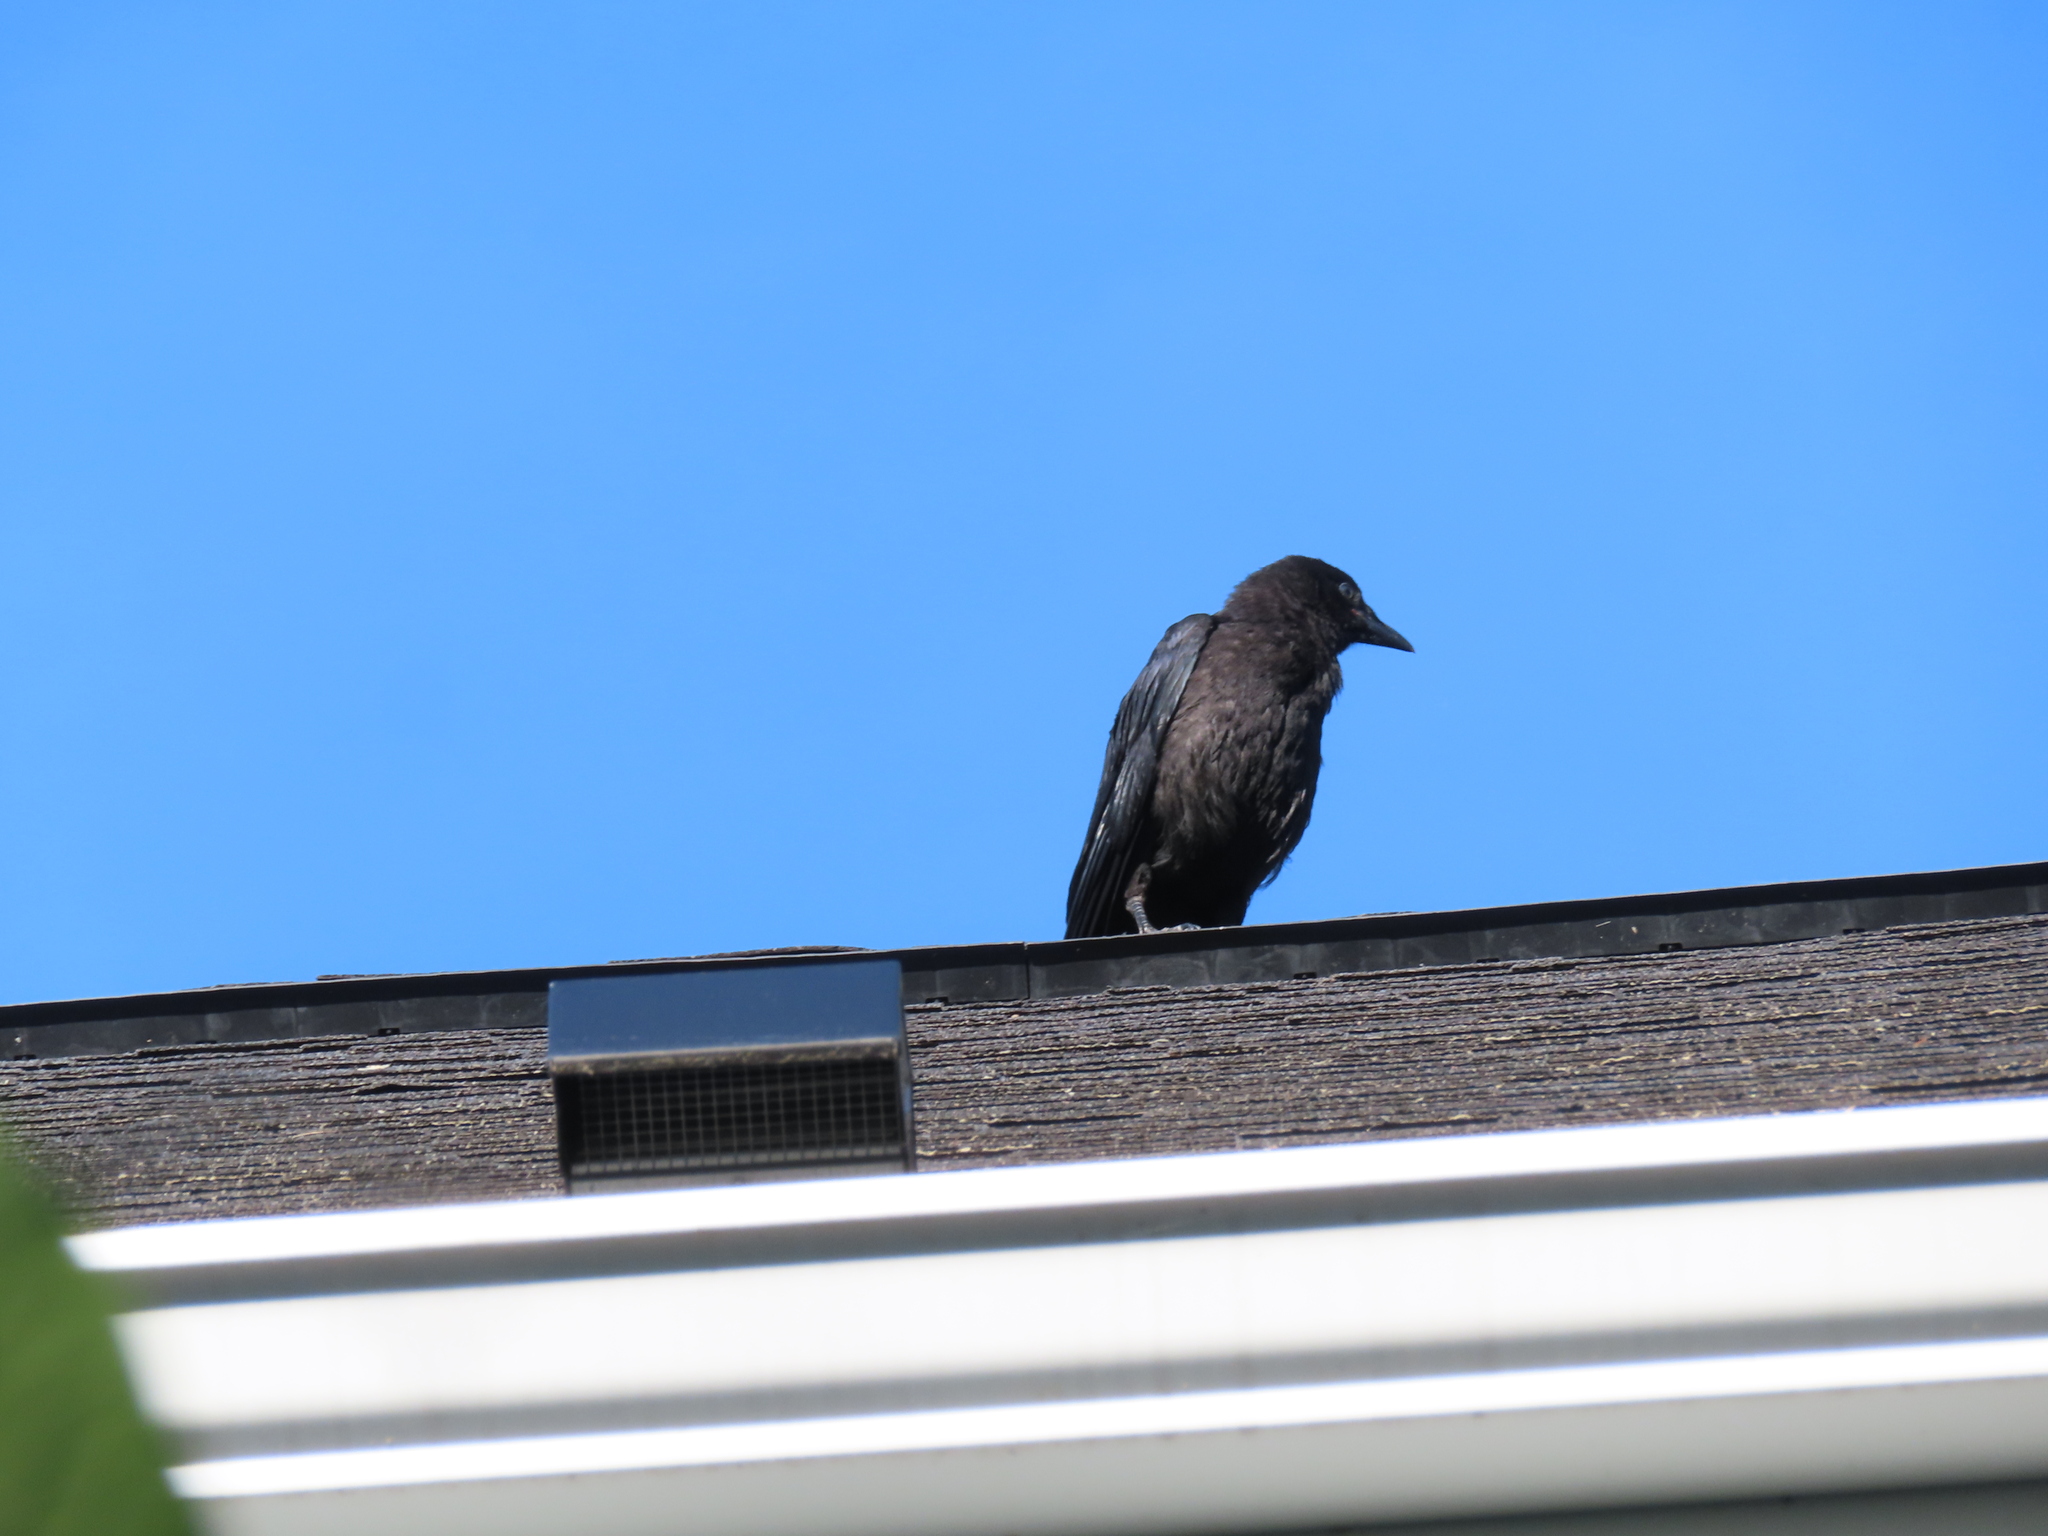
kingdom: Animalia
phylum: Chordata
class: Aves
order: Passeriformes
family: Corvidae
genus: Corvus
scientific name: Corvus brachyrhynchos
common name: American crow
